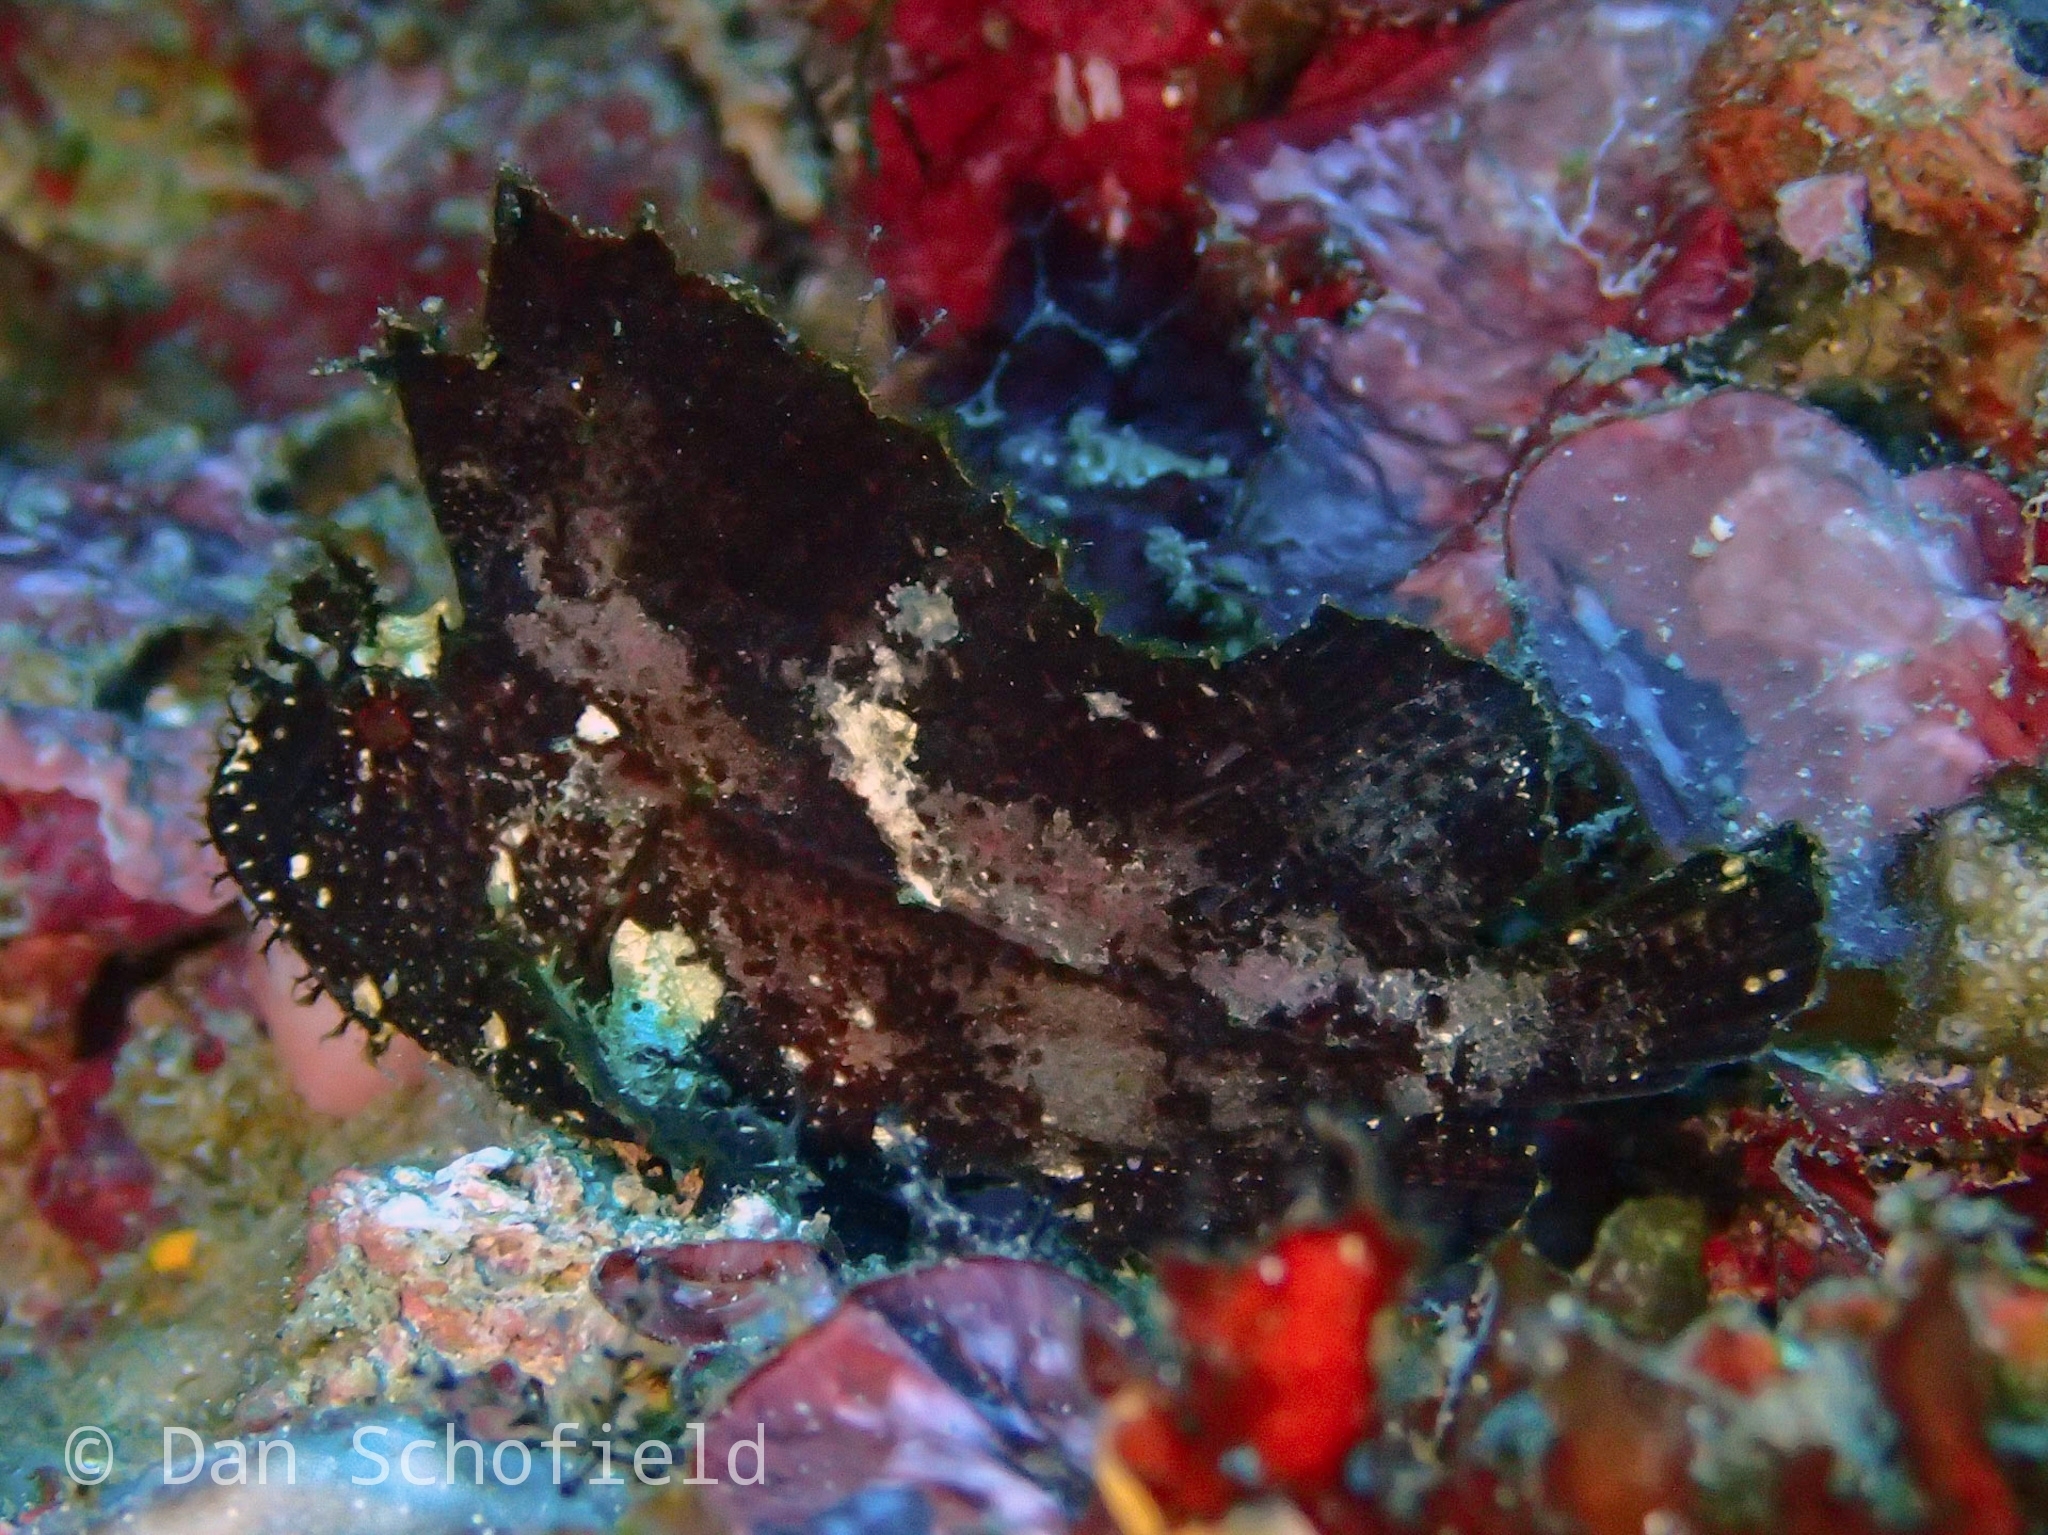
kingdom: Animalia
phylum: Chordata
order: Scorpaeniformes
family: Scorpaenidae
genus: Taenianotus
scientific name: Taenianotus triacanthus
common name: Leaf scorpionfish
